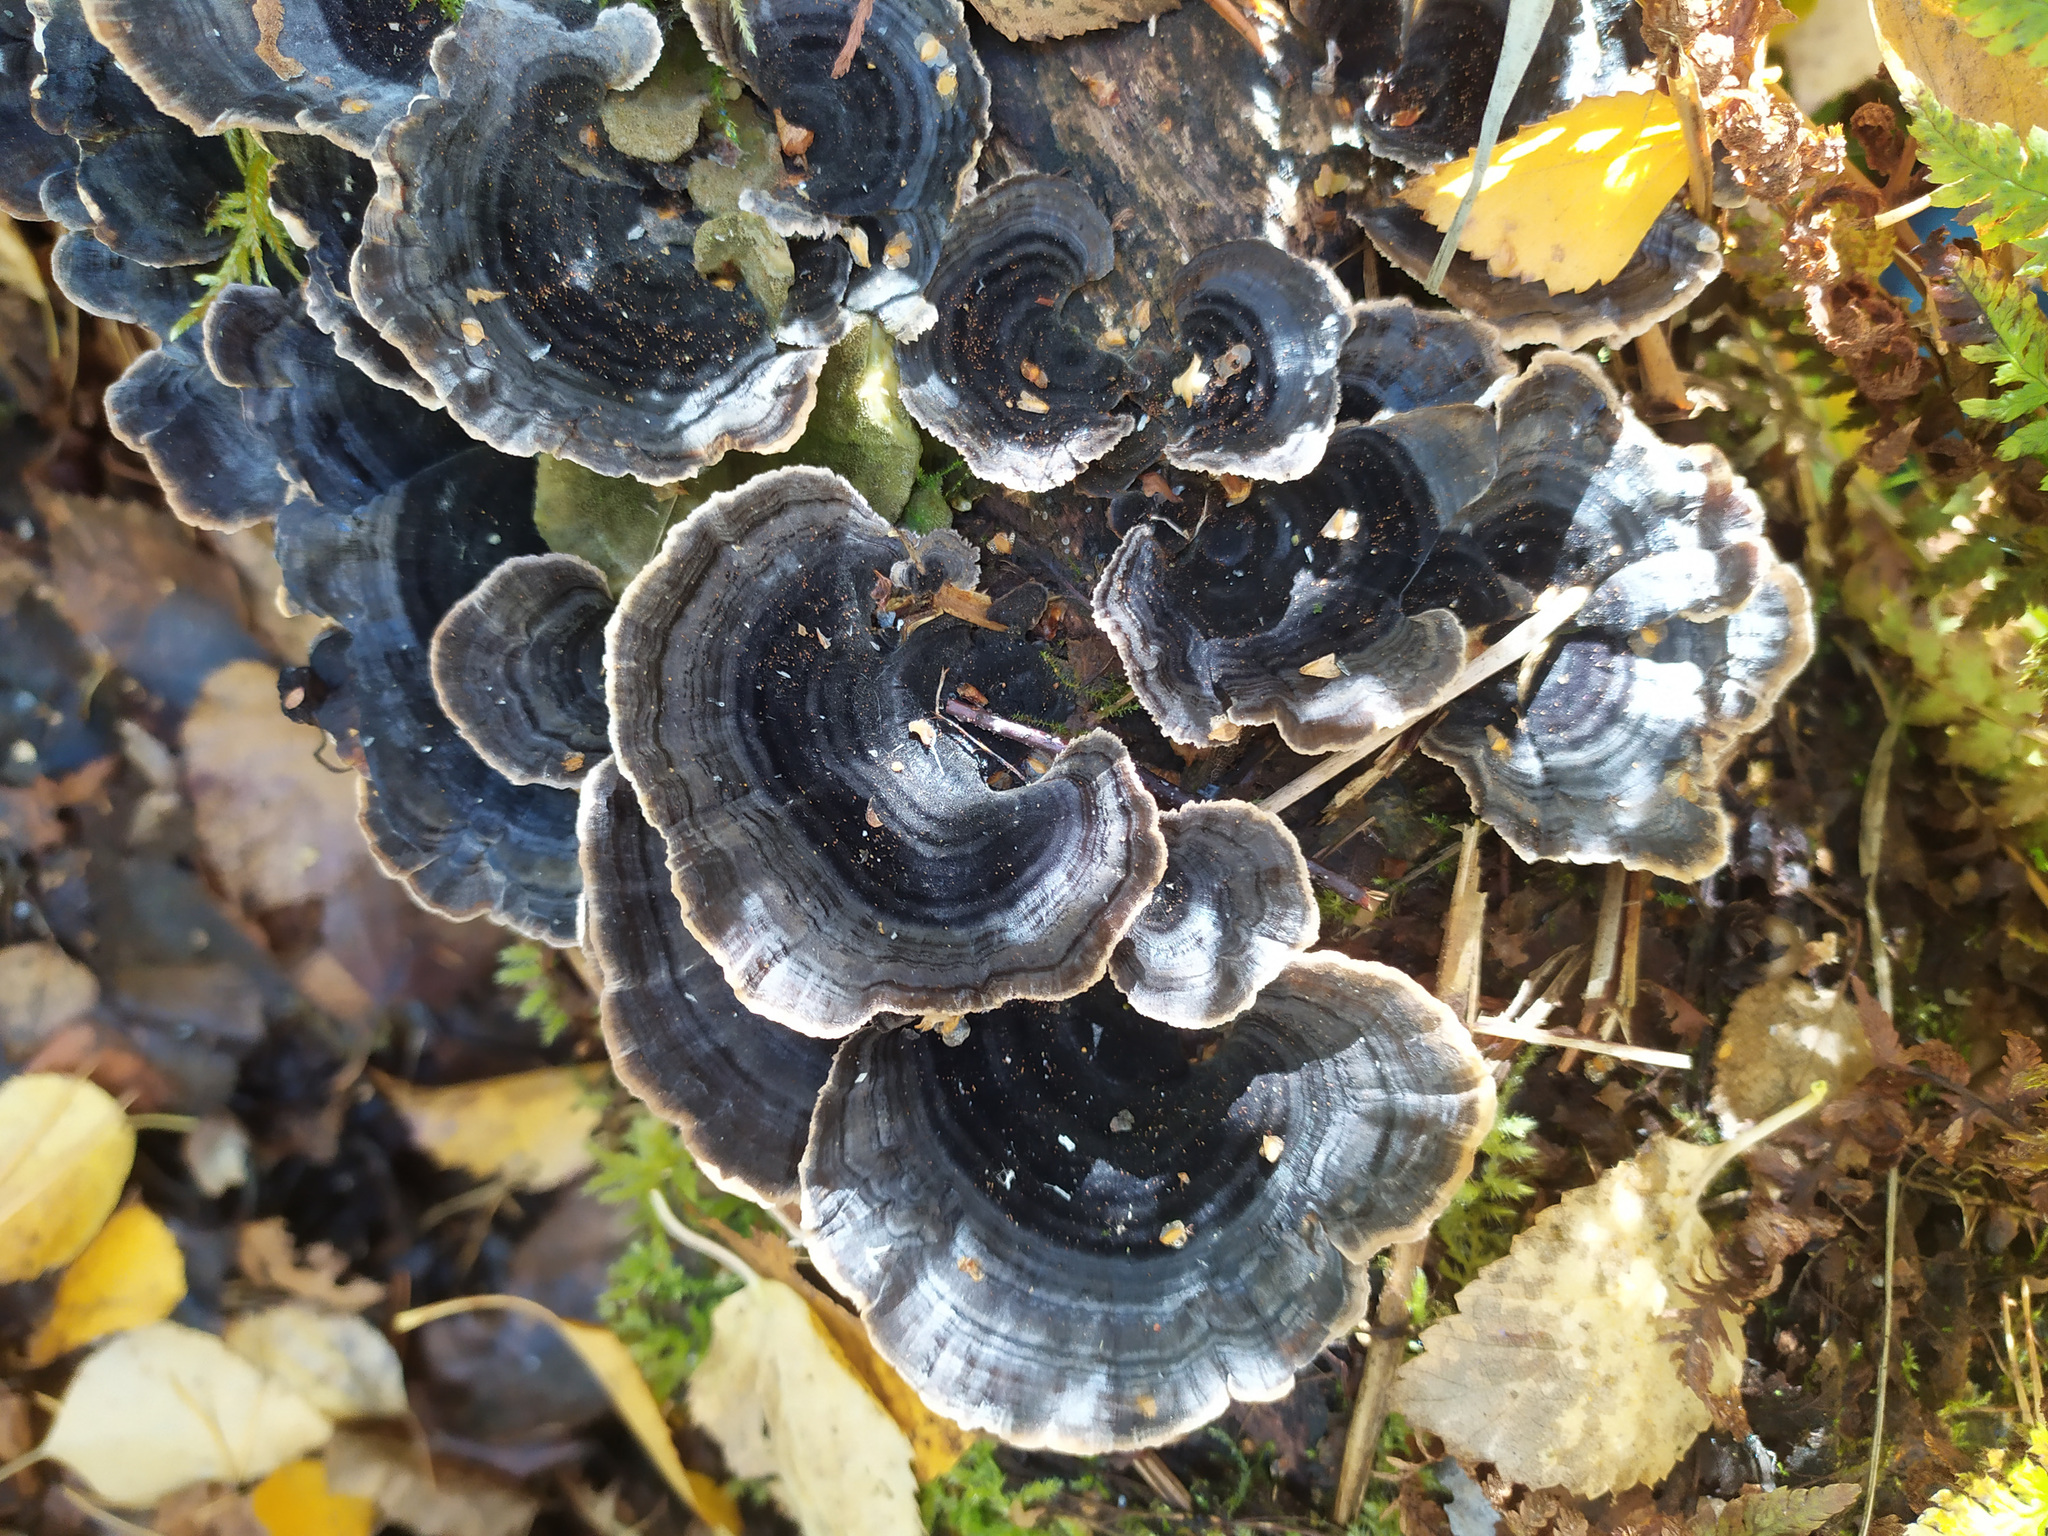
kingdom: Fungi
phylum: Basidiomycota
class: Agaricomycetes
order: Polyporales
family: Polyporaceae
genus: Trametes
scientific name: Trametes versicolor
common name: Turkeytail
